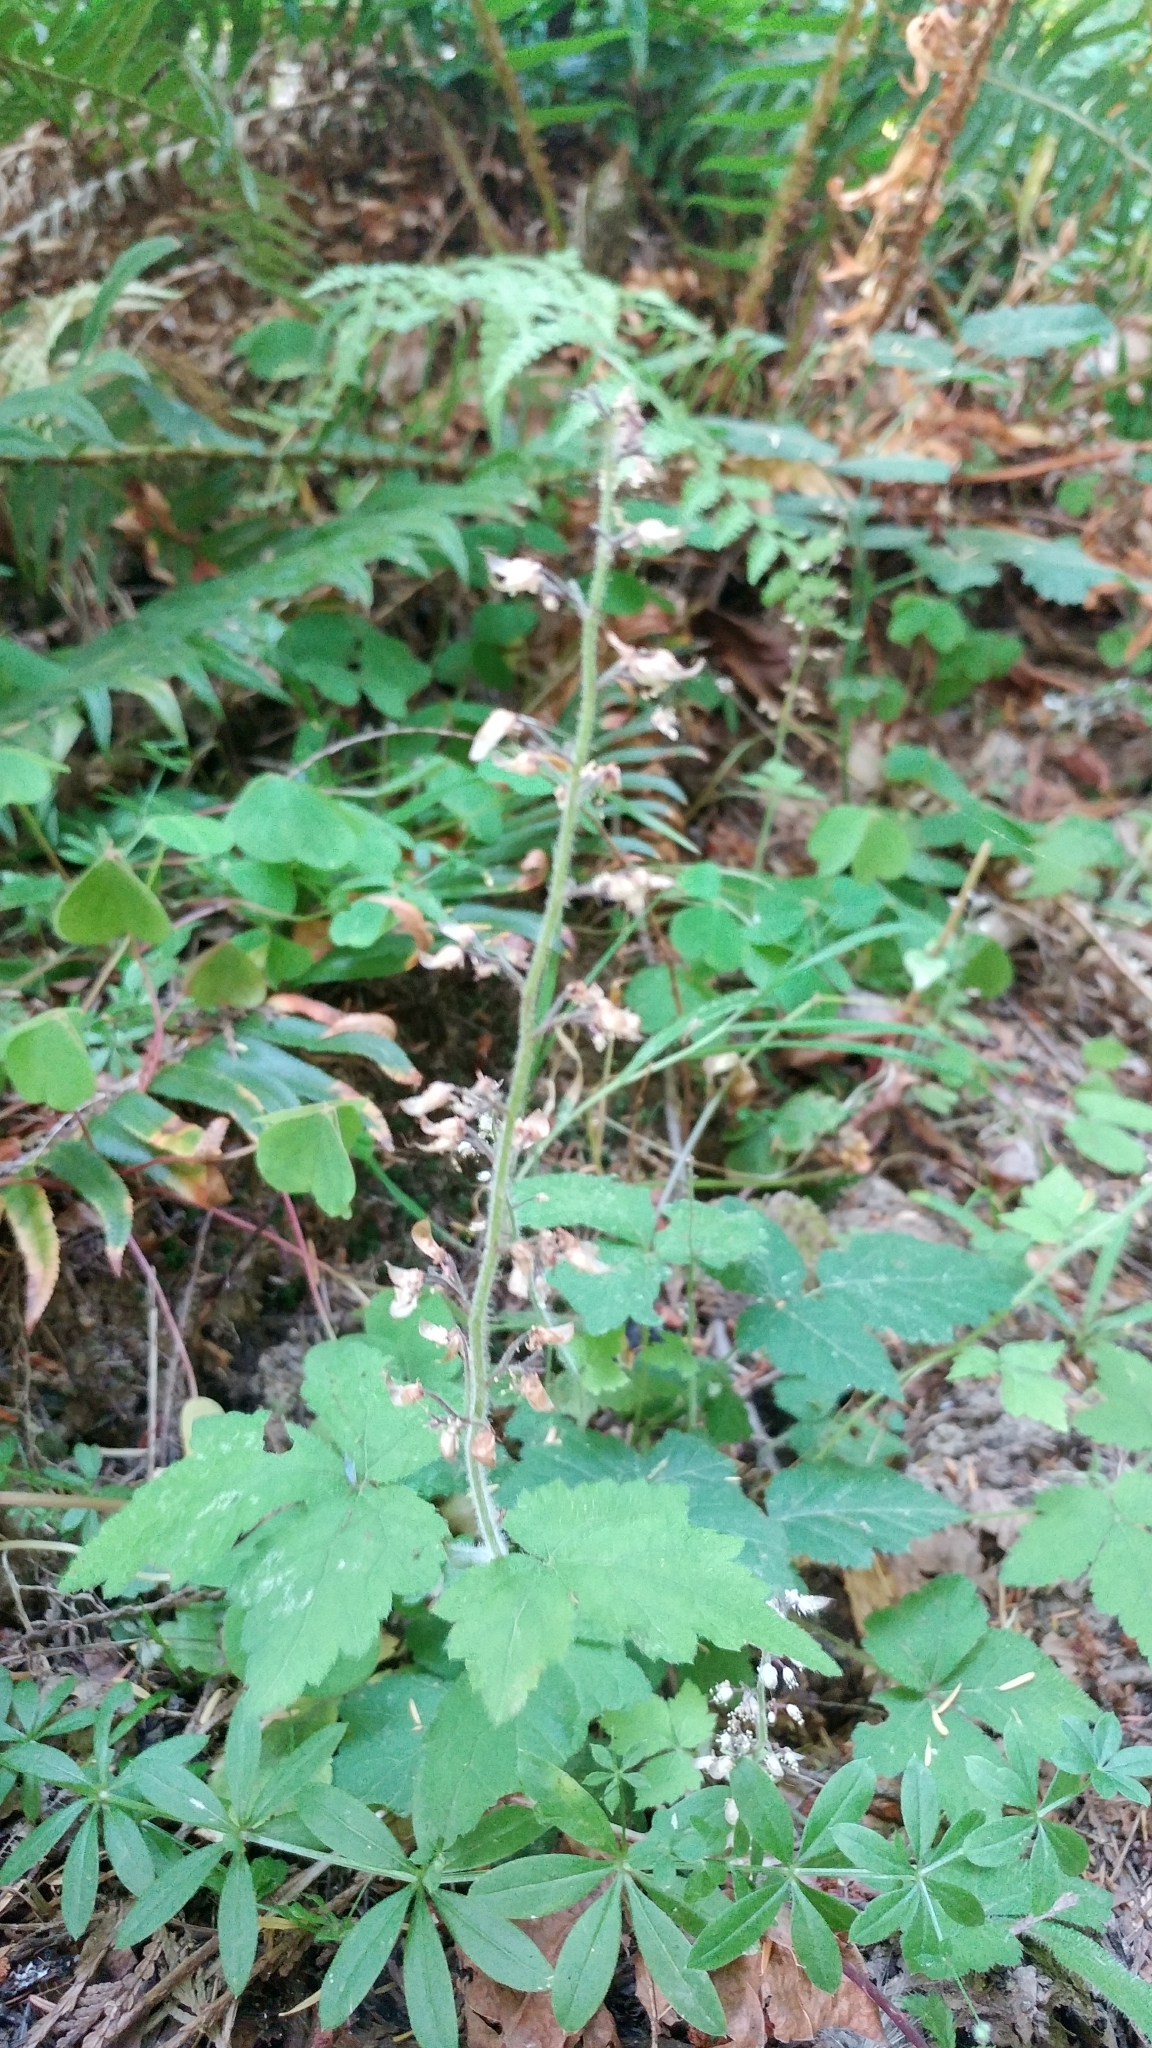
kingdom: Plantae
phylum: Tracheophyta
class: Magnoliopsida
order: Saxifragales
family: Saxifragaceae
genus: Tiarella
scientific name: Tiarella trifoliata
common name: Sugar-scoop
